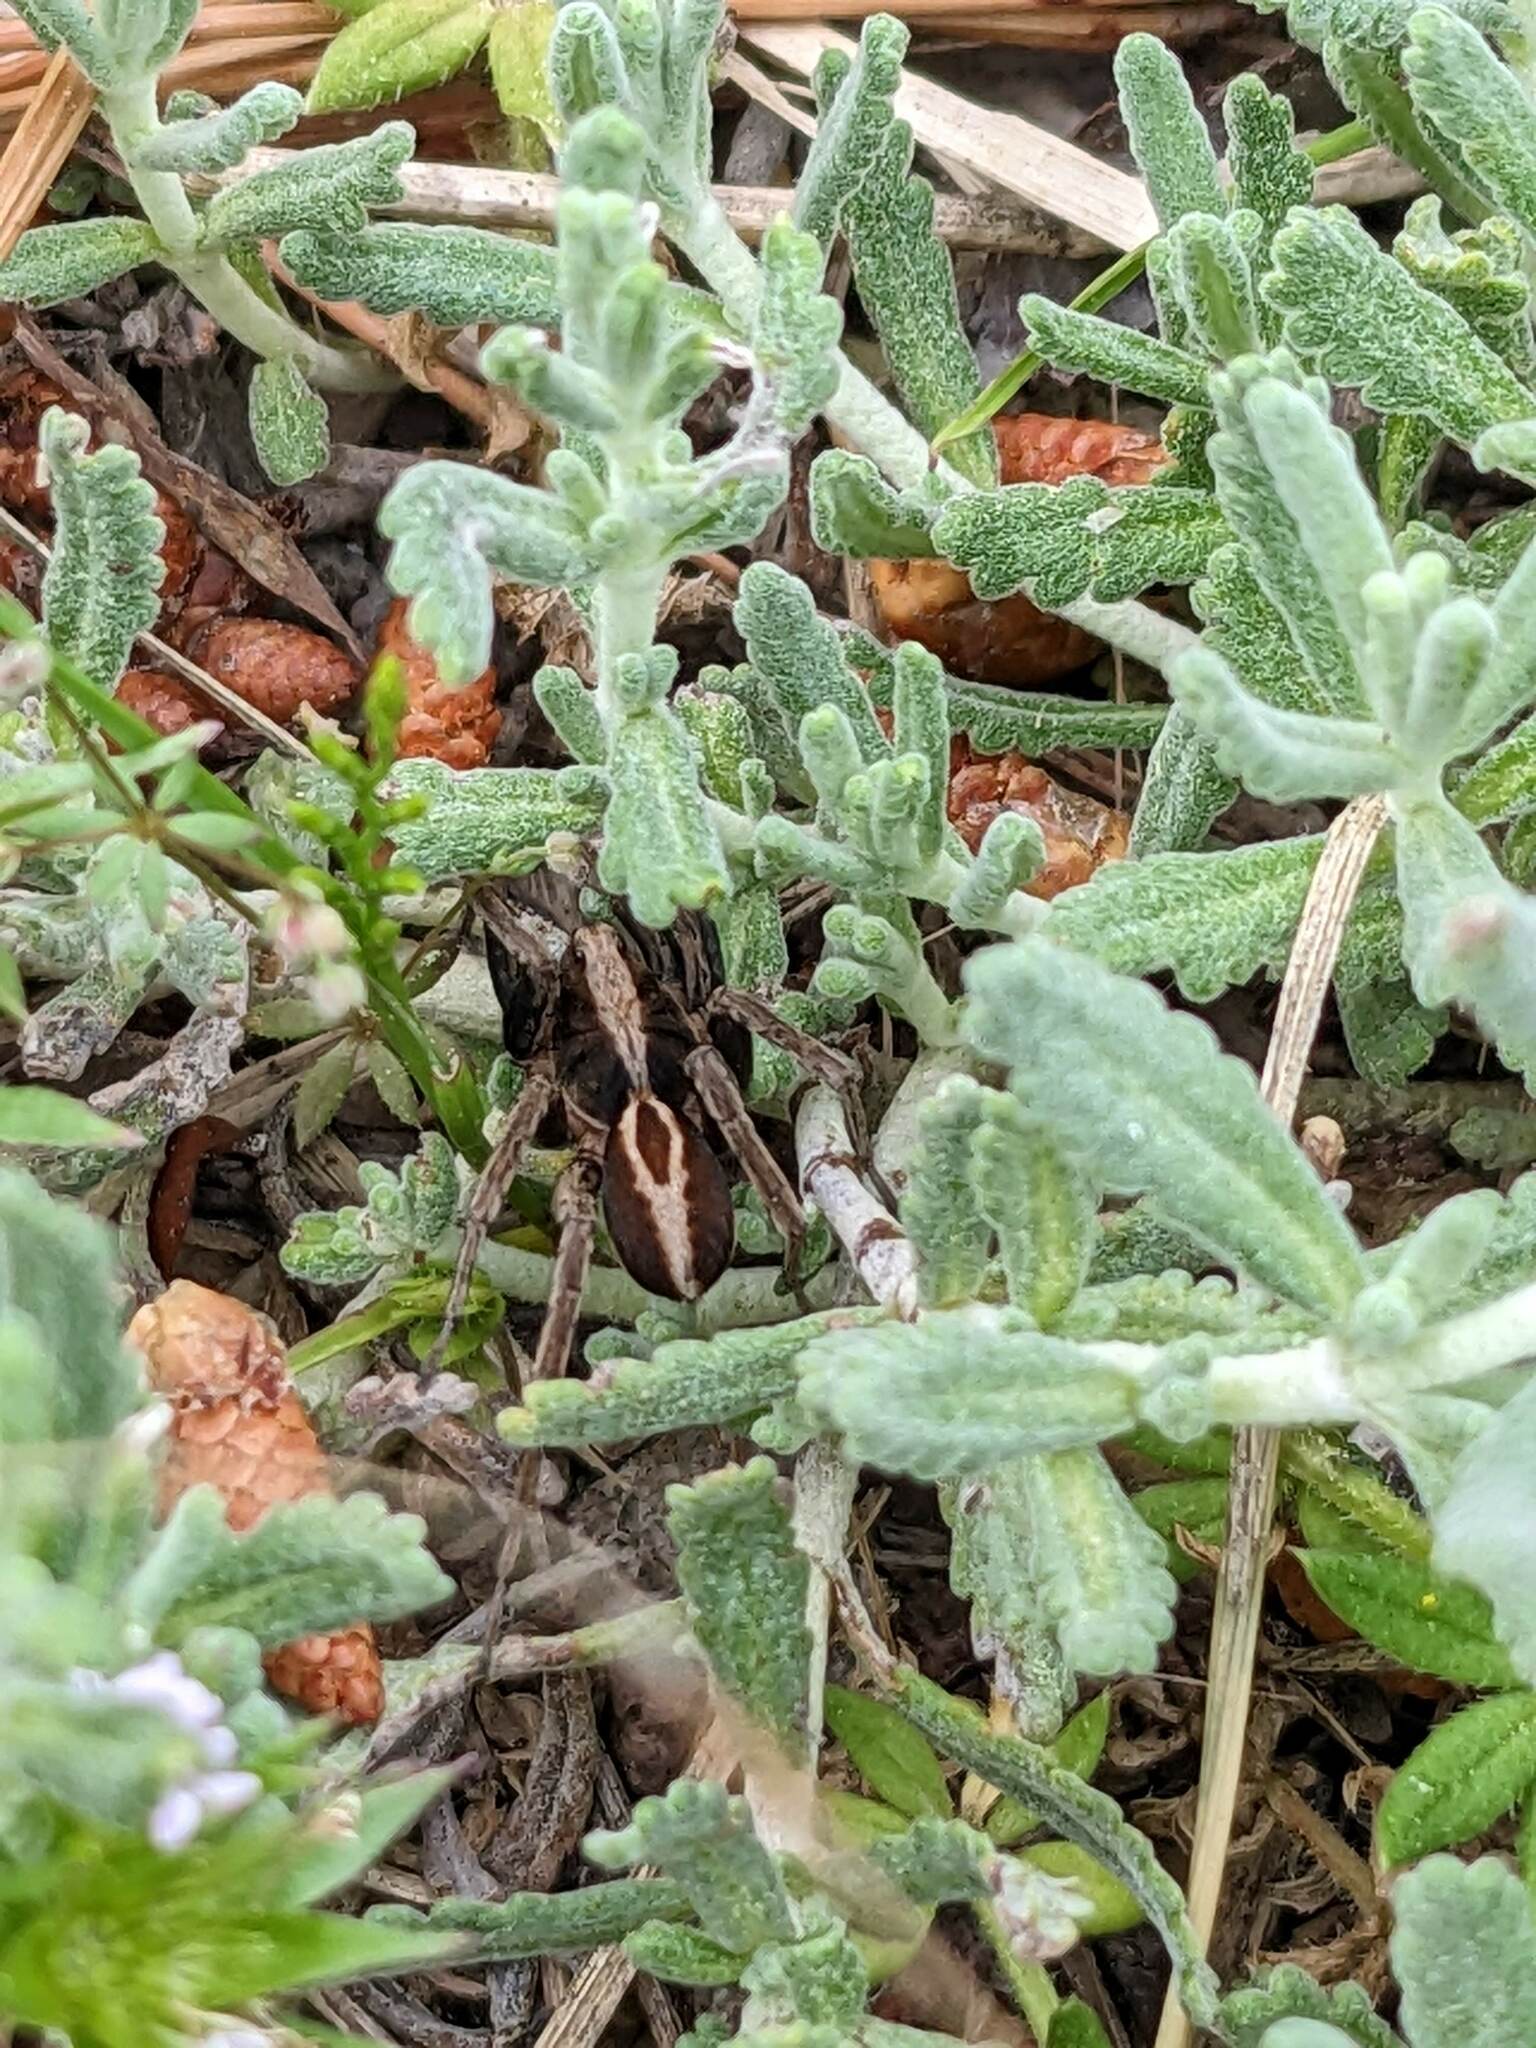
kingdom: Animalia
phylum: Arthropoda
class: Arachnida
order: Araneae
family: Lycosidae
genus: Alopecosa
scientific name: Alopecosa albofasciata
